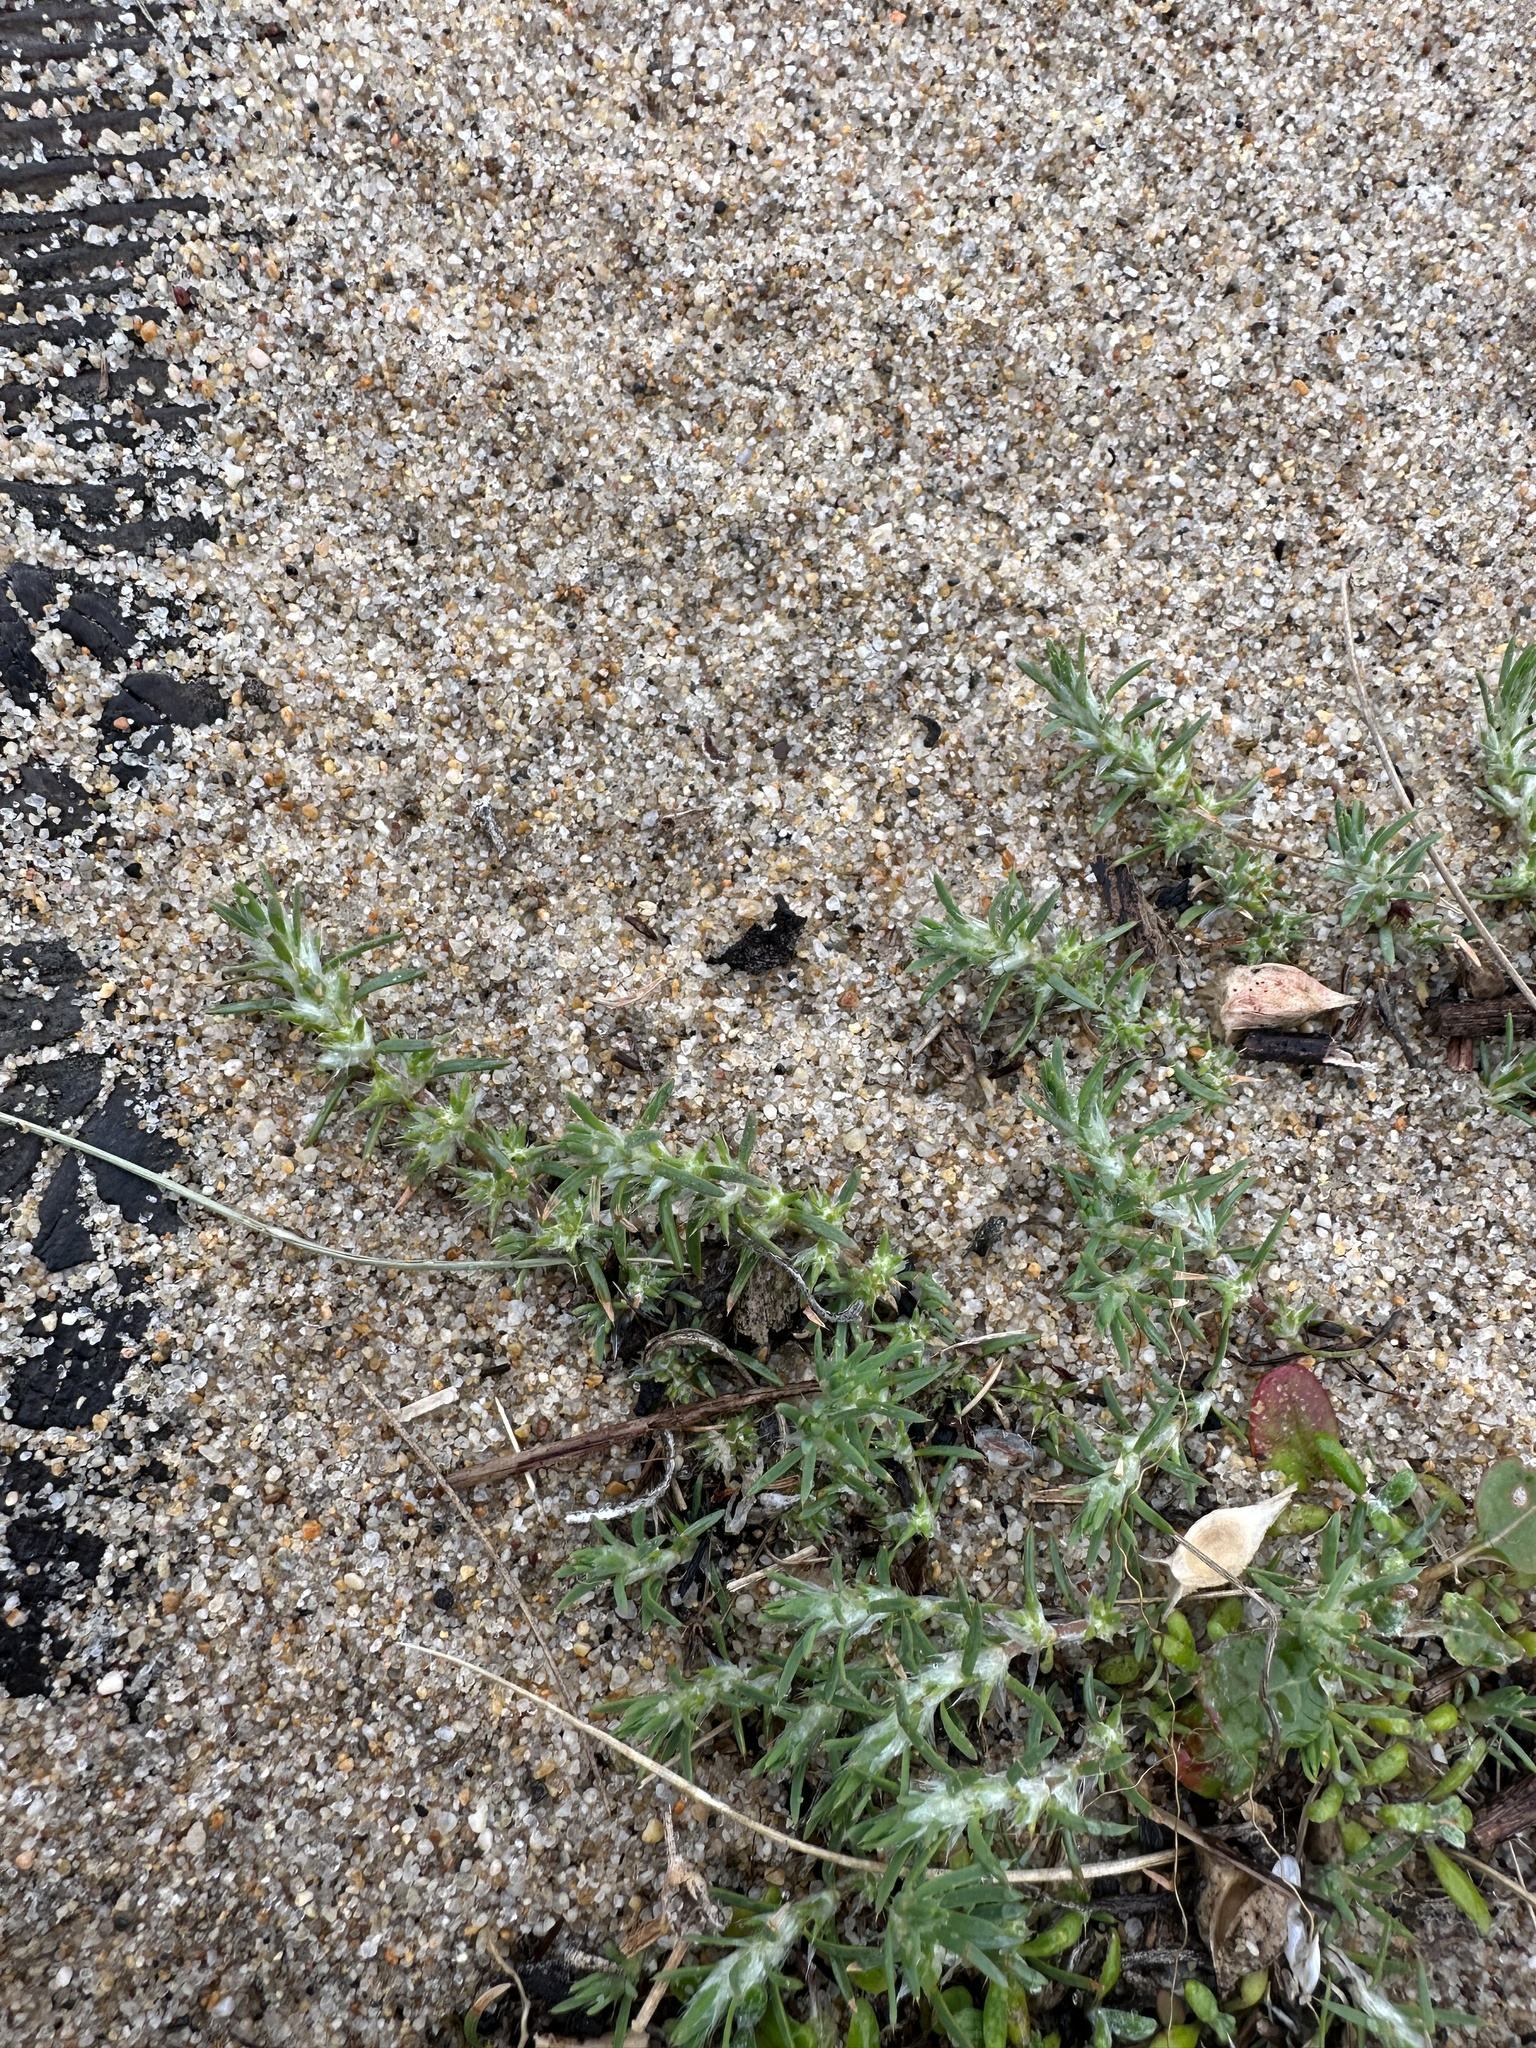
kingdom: Plantae
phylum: Tracheophyta
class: Magnoliopsida
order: Caryophyllales
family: Caryophyllaceae
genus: Cardionema
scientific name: Cardionema ramosissima
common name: Sandcarpet
